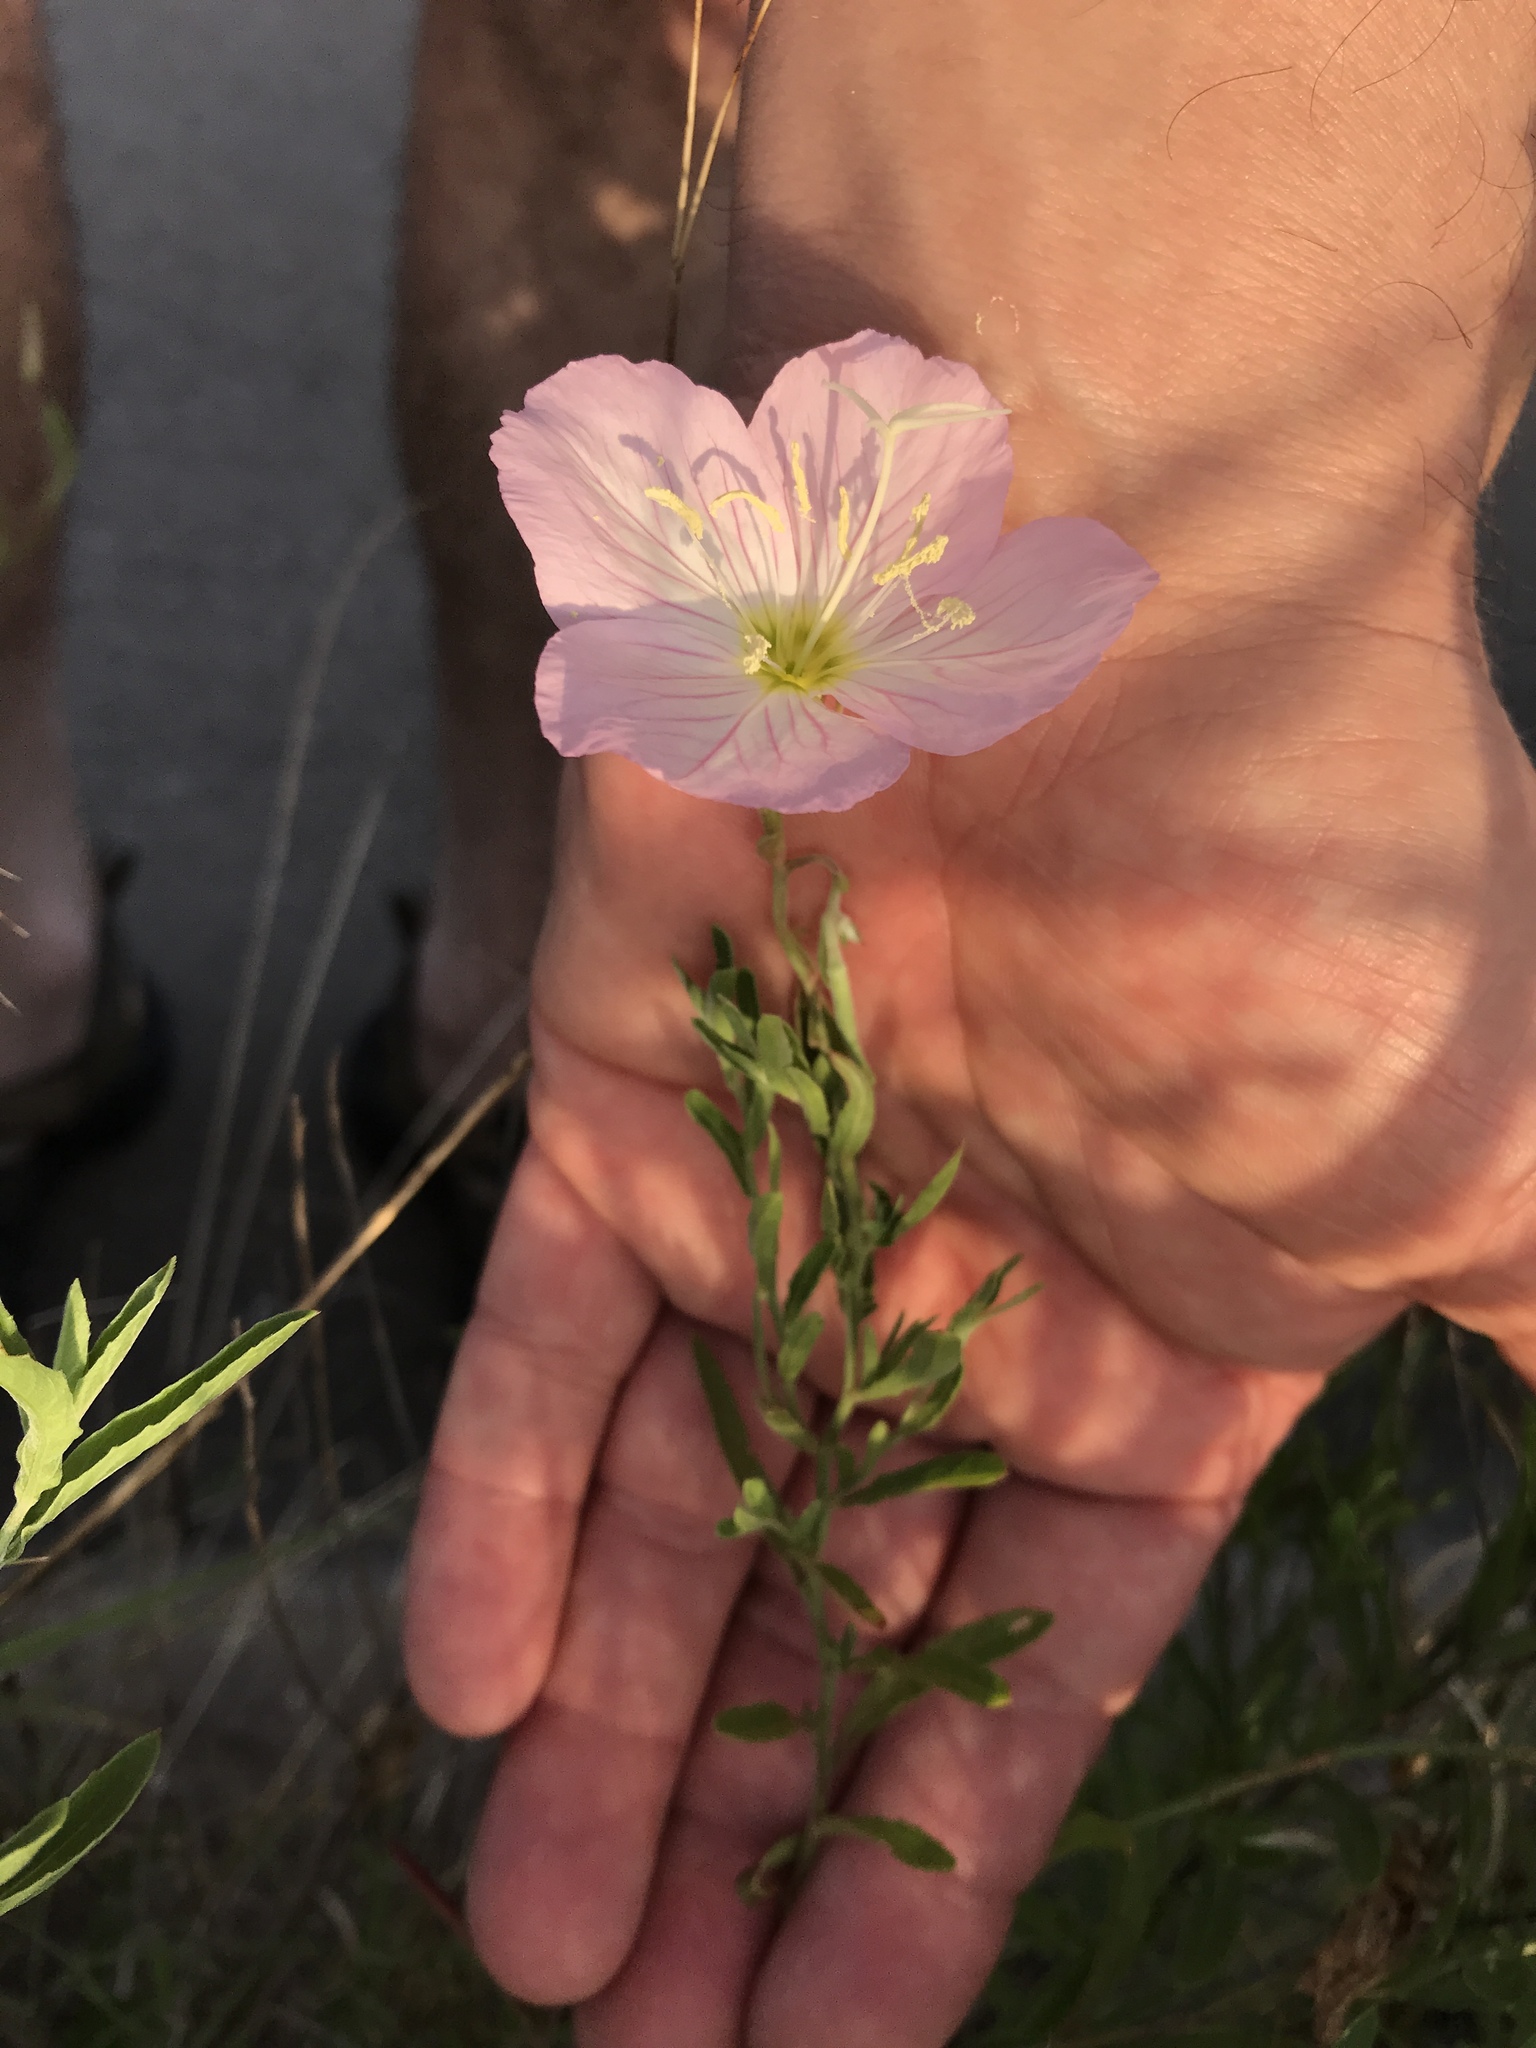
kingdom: Plantae
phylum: Tracheophyta
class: Magnoliopsida
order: Myrtales
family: Onagraceae
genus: Oenothera
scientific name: Oenothera speciosa
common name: White evening-primrose
